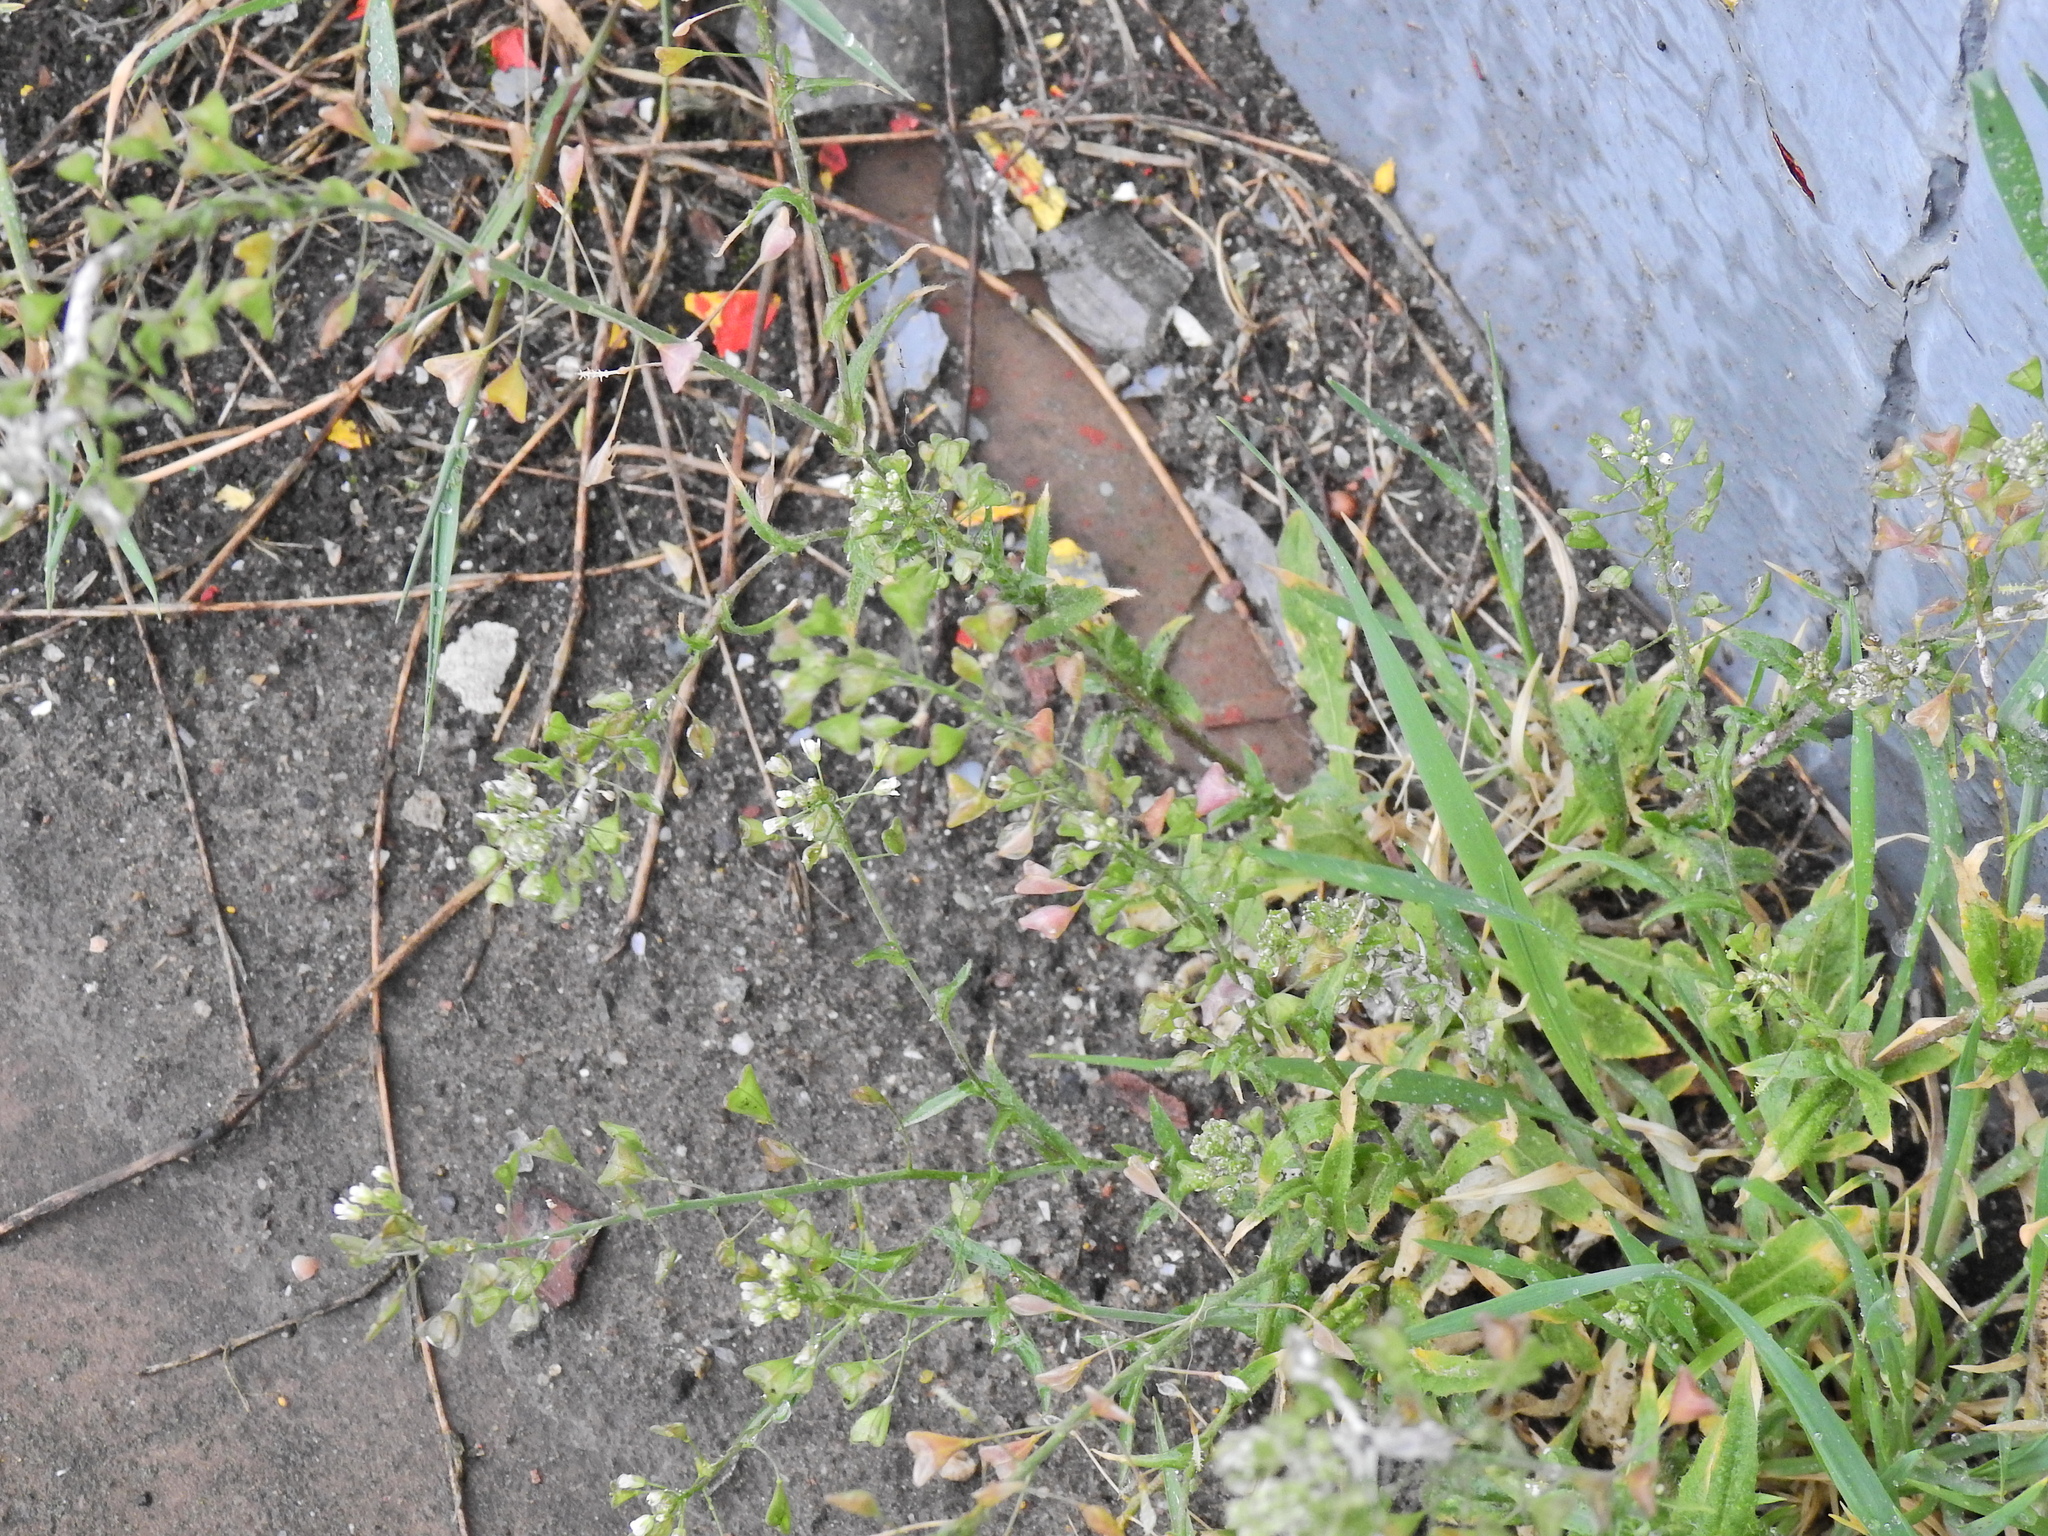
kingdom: Plantae
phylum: Tracheophyta
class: Magnoliopsida
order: Brassicales
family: Brassicaceae
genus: Capsella
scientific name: Capsella bursa-pastoris
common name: Shepherd's purse
